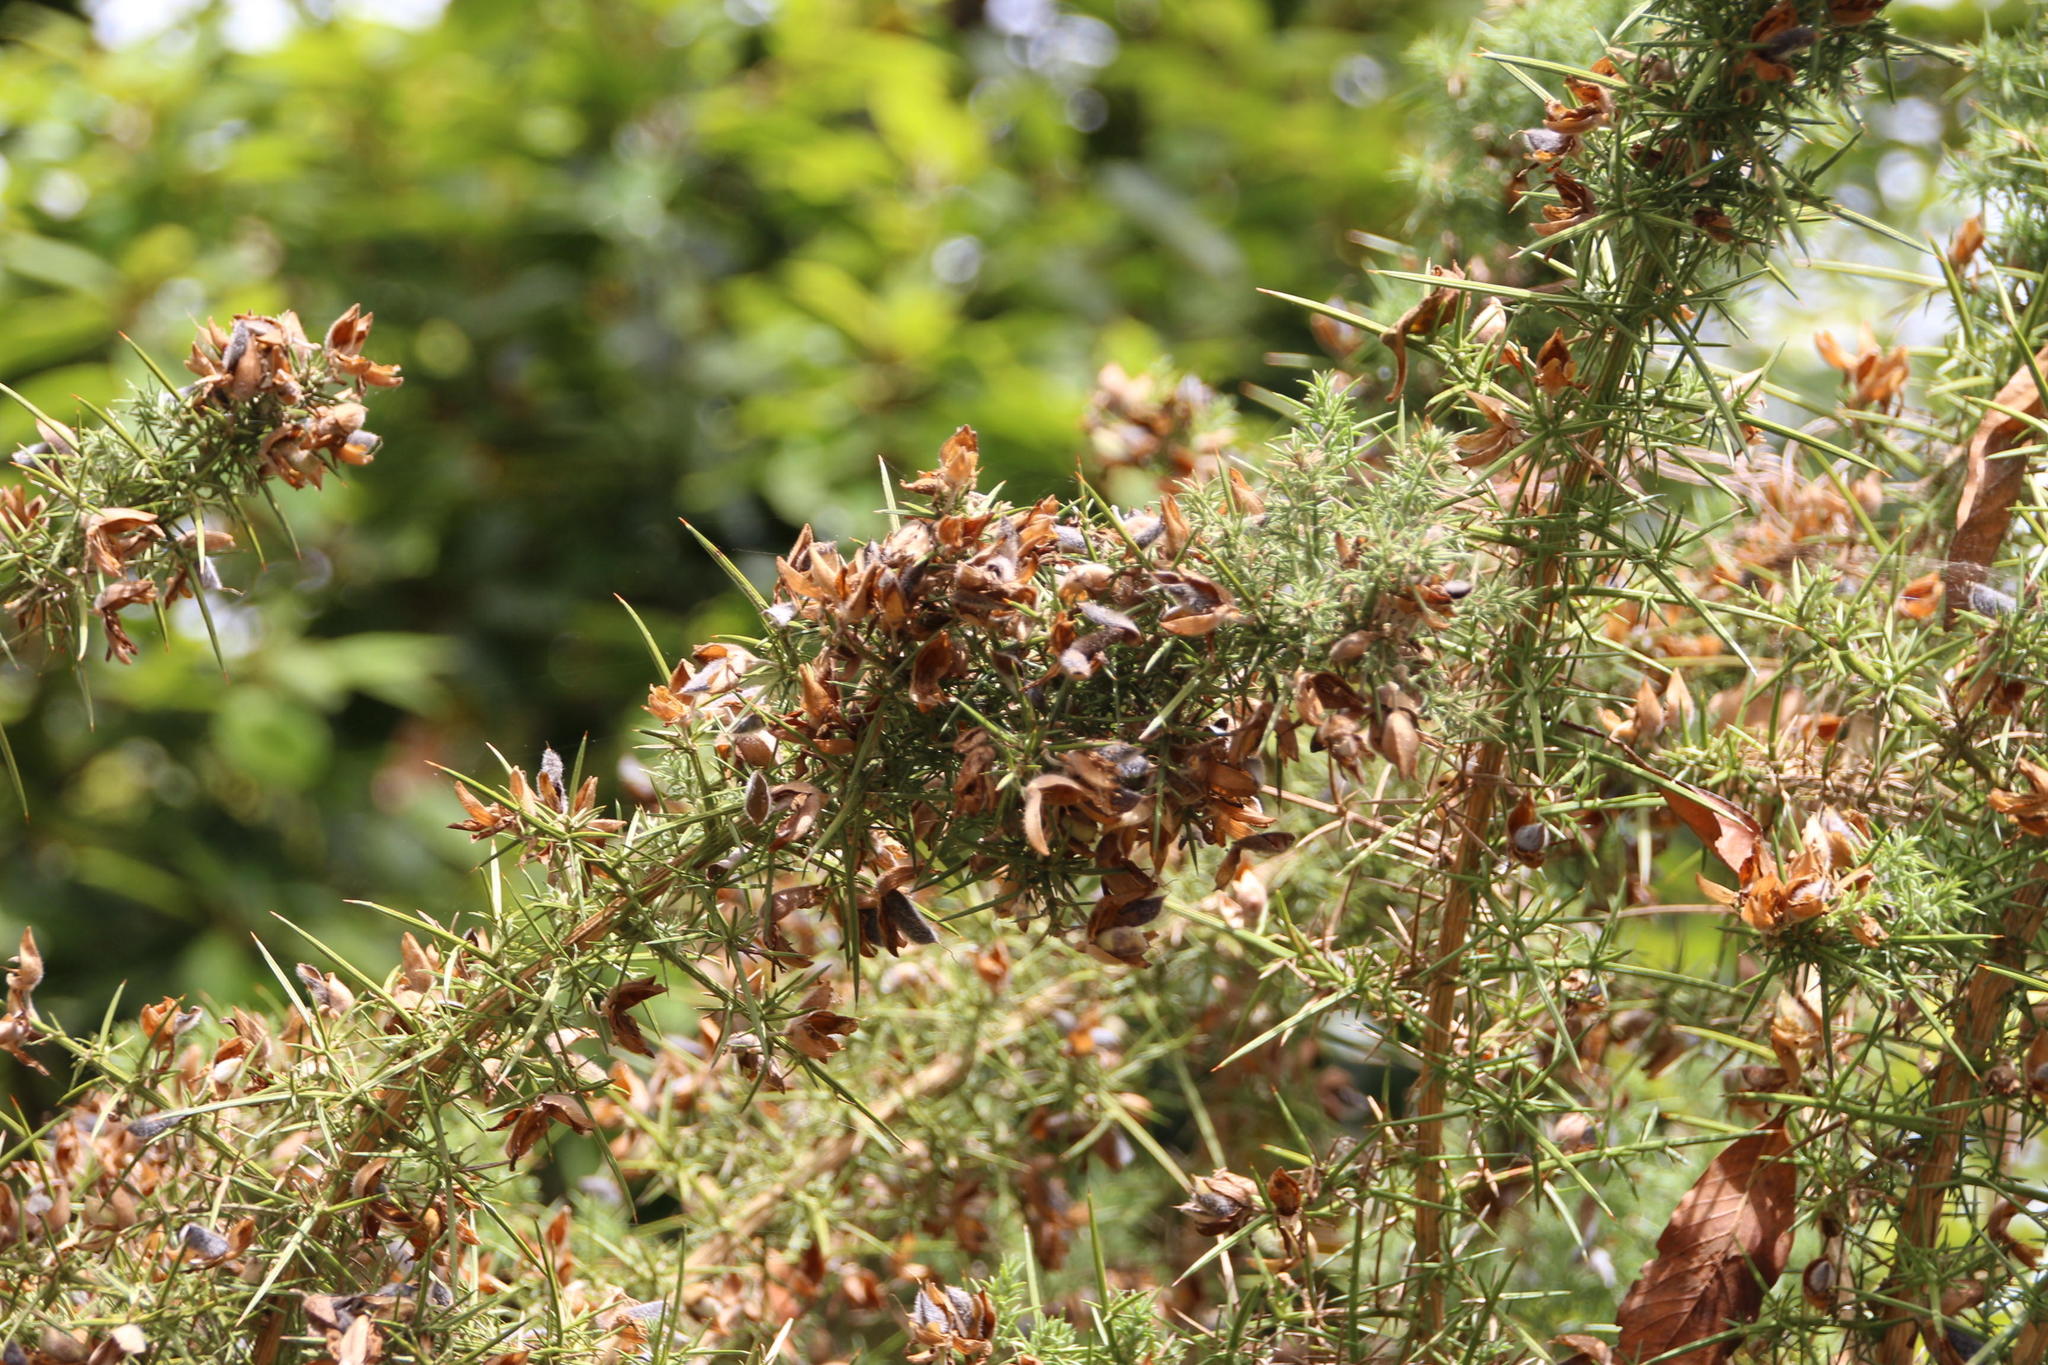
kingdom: Plantae
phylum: Tracheophyta
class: Magnoliopsida
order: Fabales
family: Fabaceae
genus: Ulex
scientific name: Ulex europaeus
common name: Common gorse
